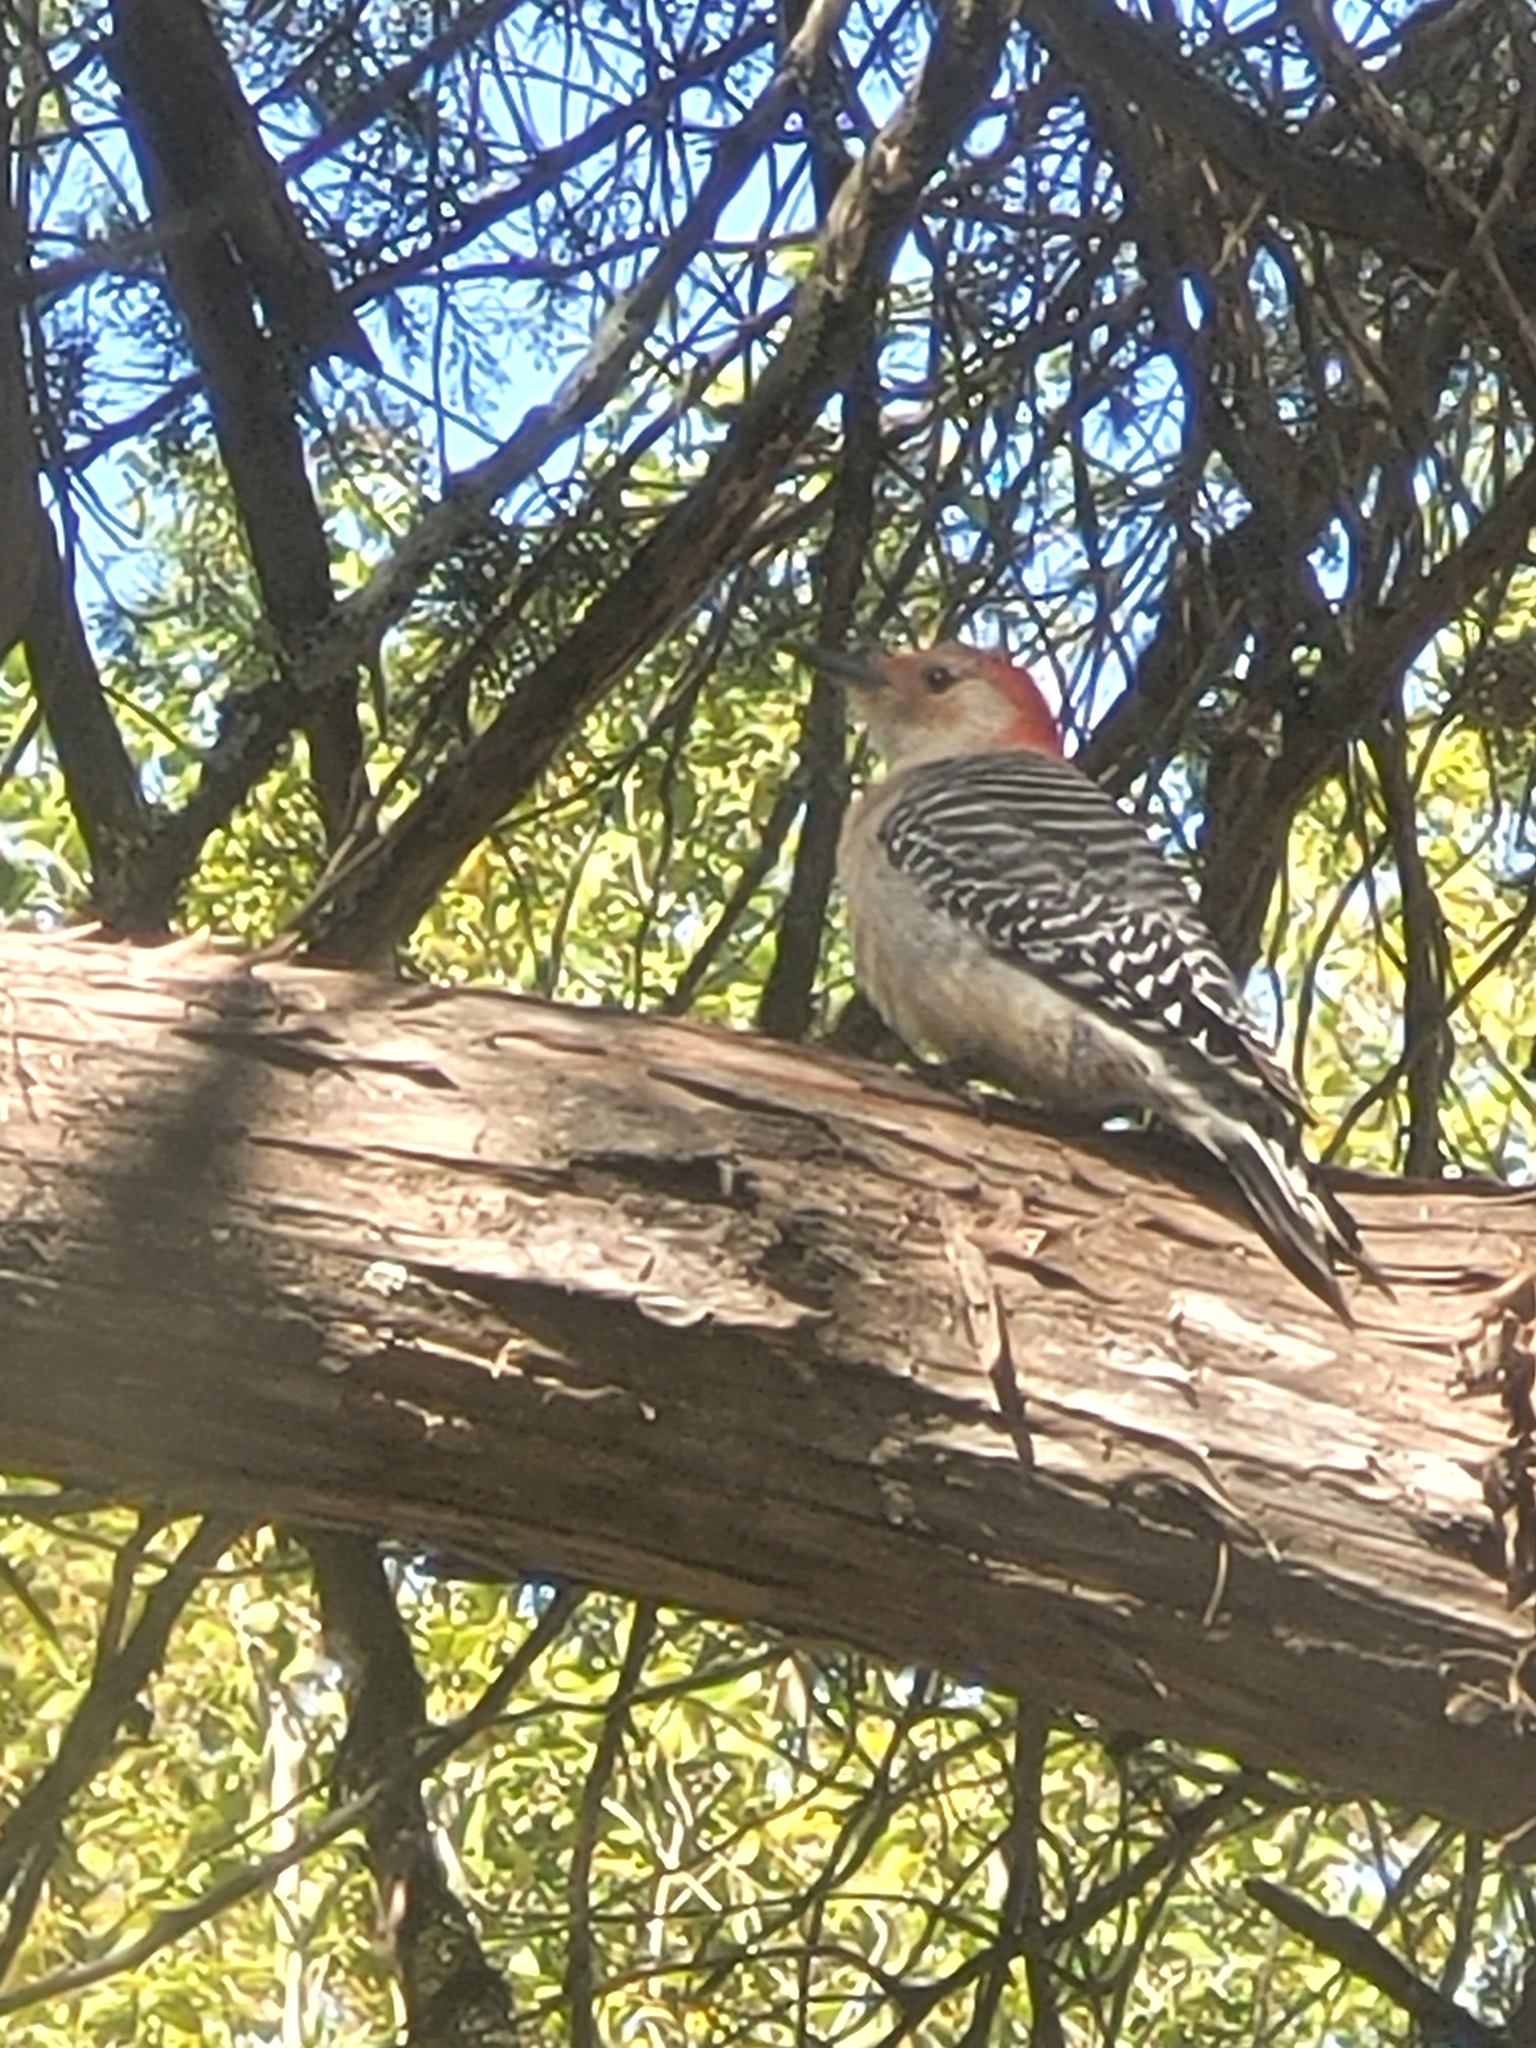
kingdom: Animalia
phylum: Chordata
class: Aves
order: Piciformes
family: Picidae
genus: Melanerpes
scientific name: Melanerpes carolinus
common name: Red-bellied woodpecker
